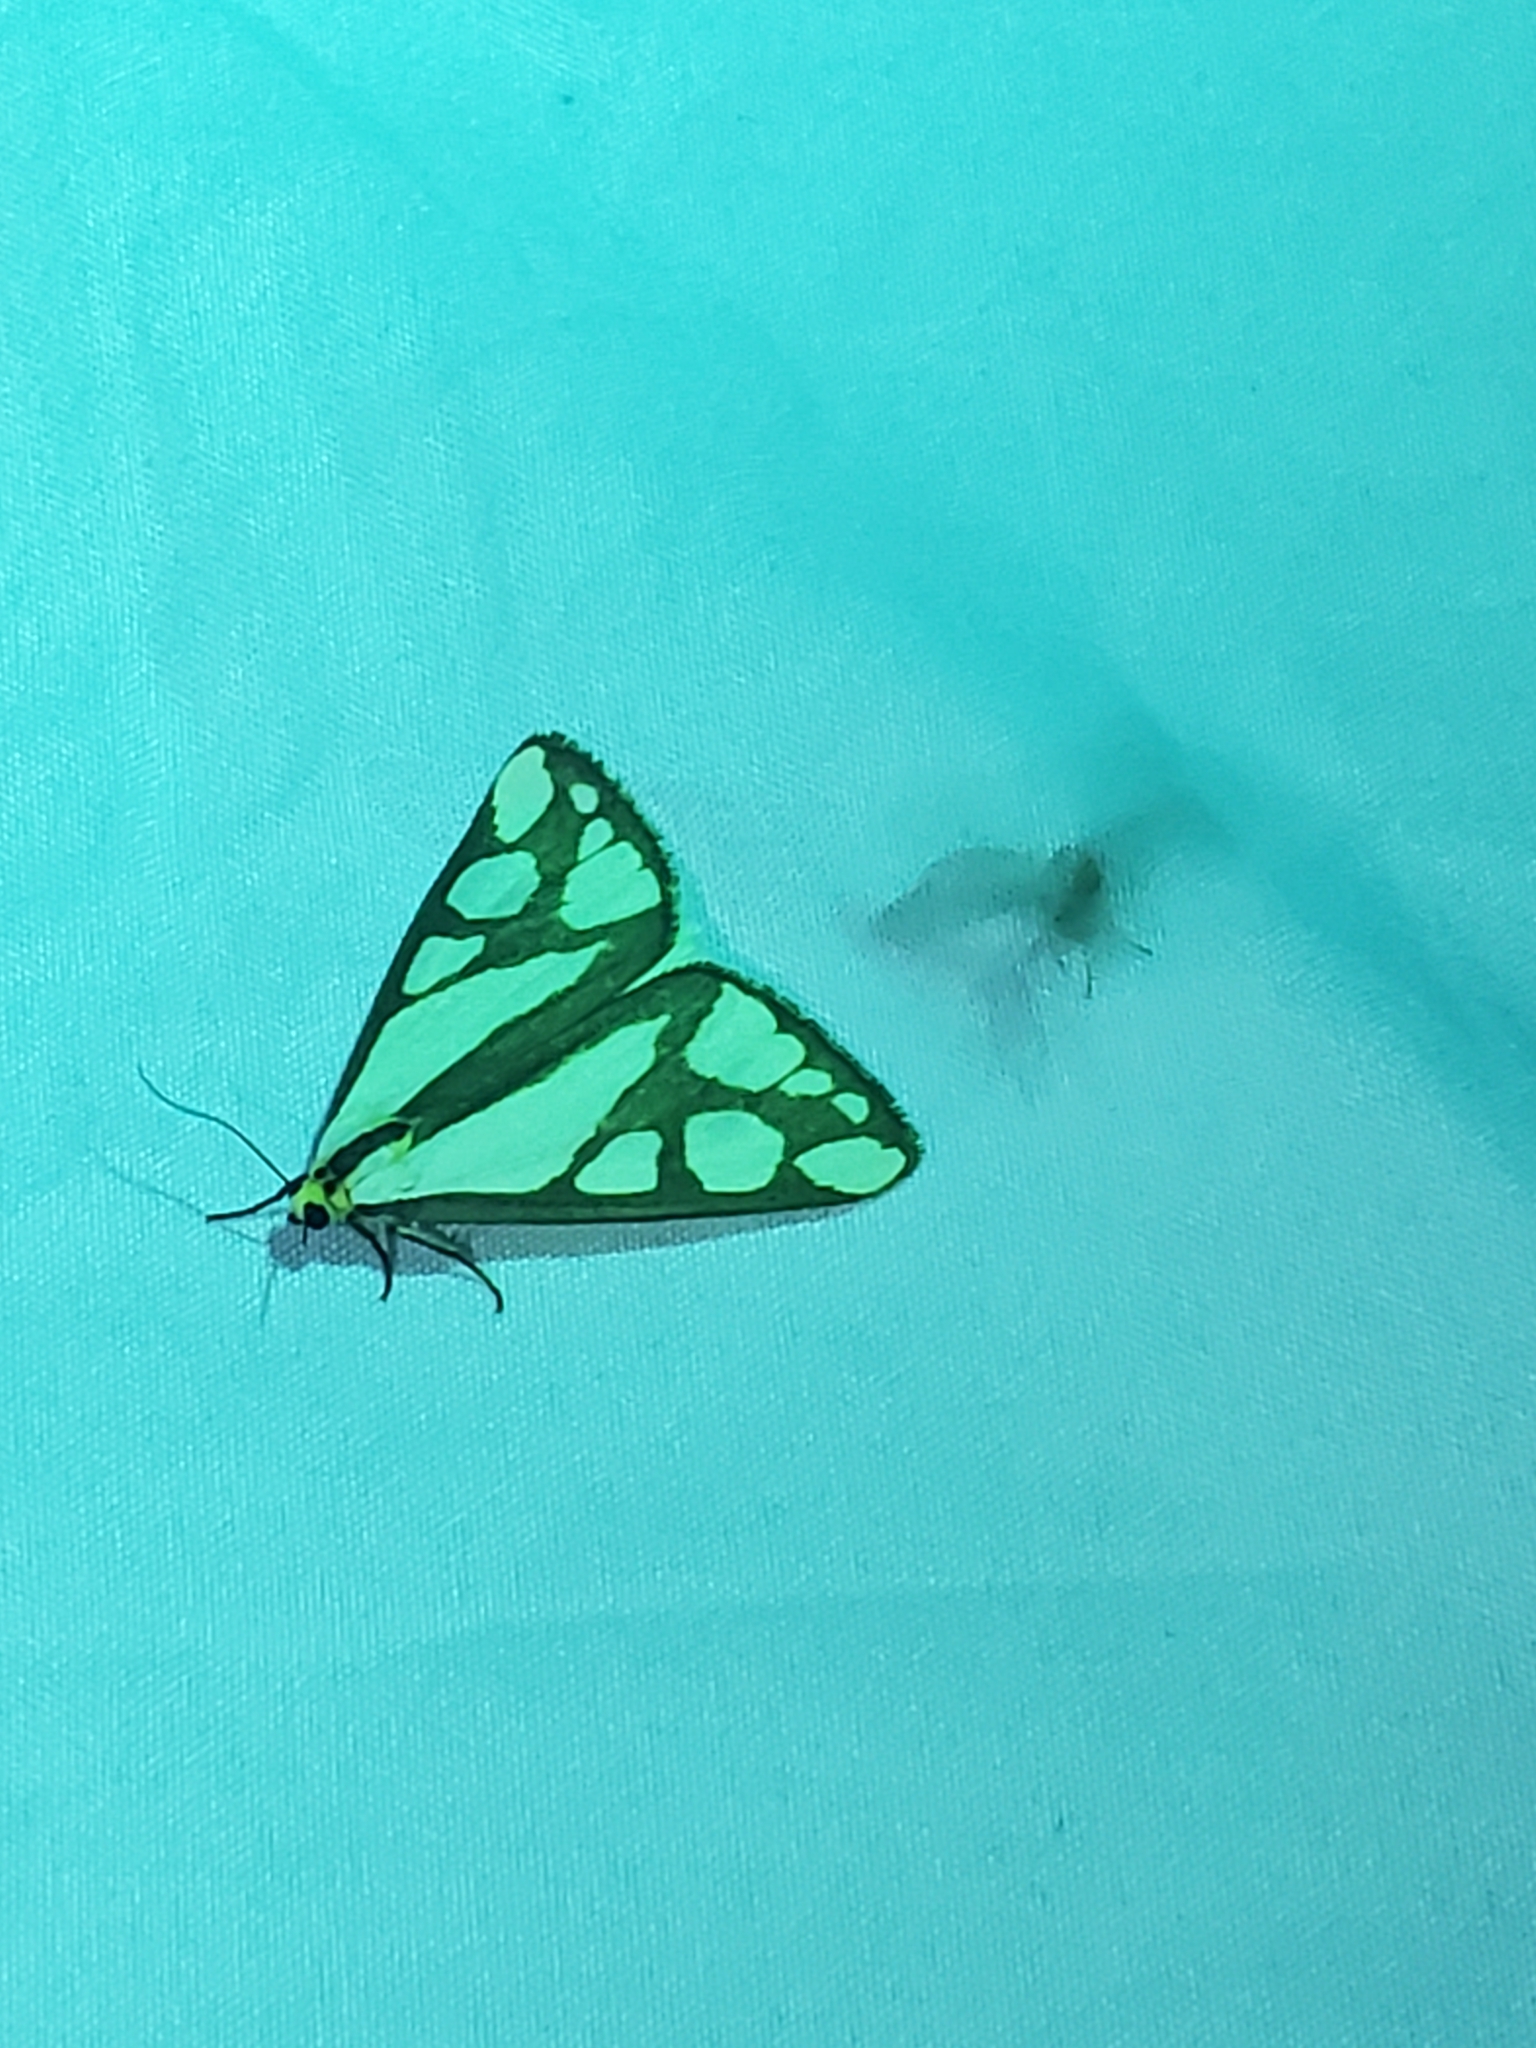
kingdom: Animalia
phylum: Arthropoda
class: Insecta
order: Lepidoptera
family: Erebidae
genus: Haploa
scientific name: Haploa reversa
